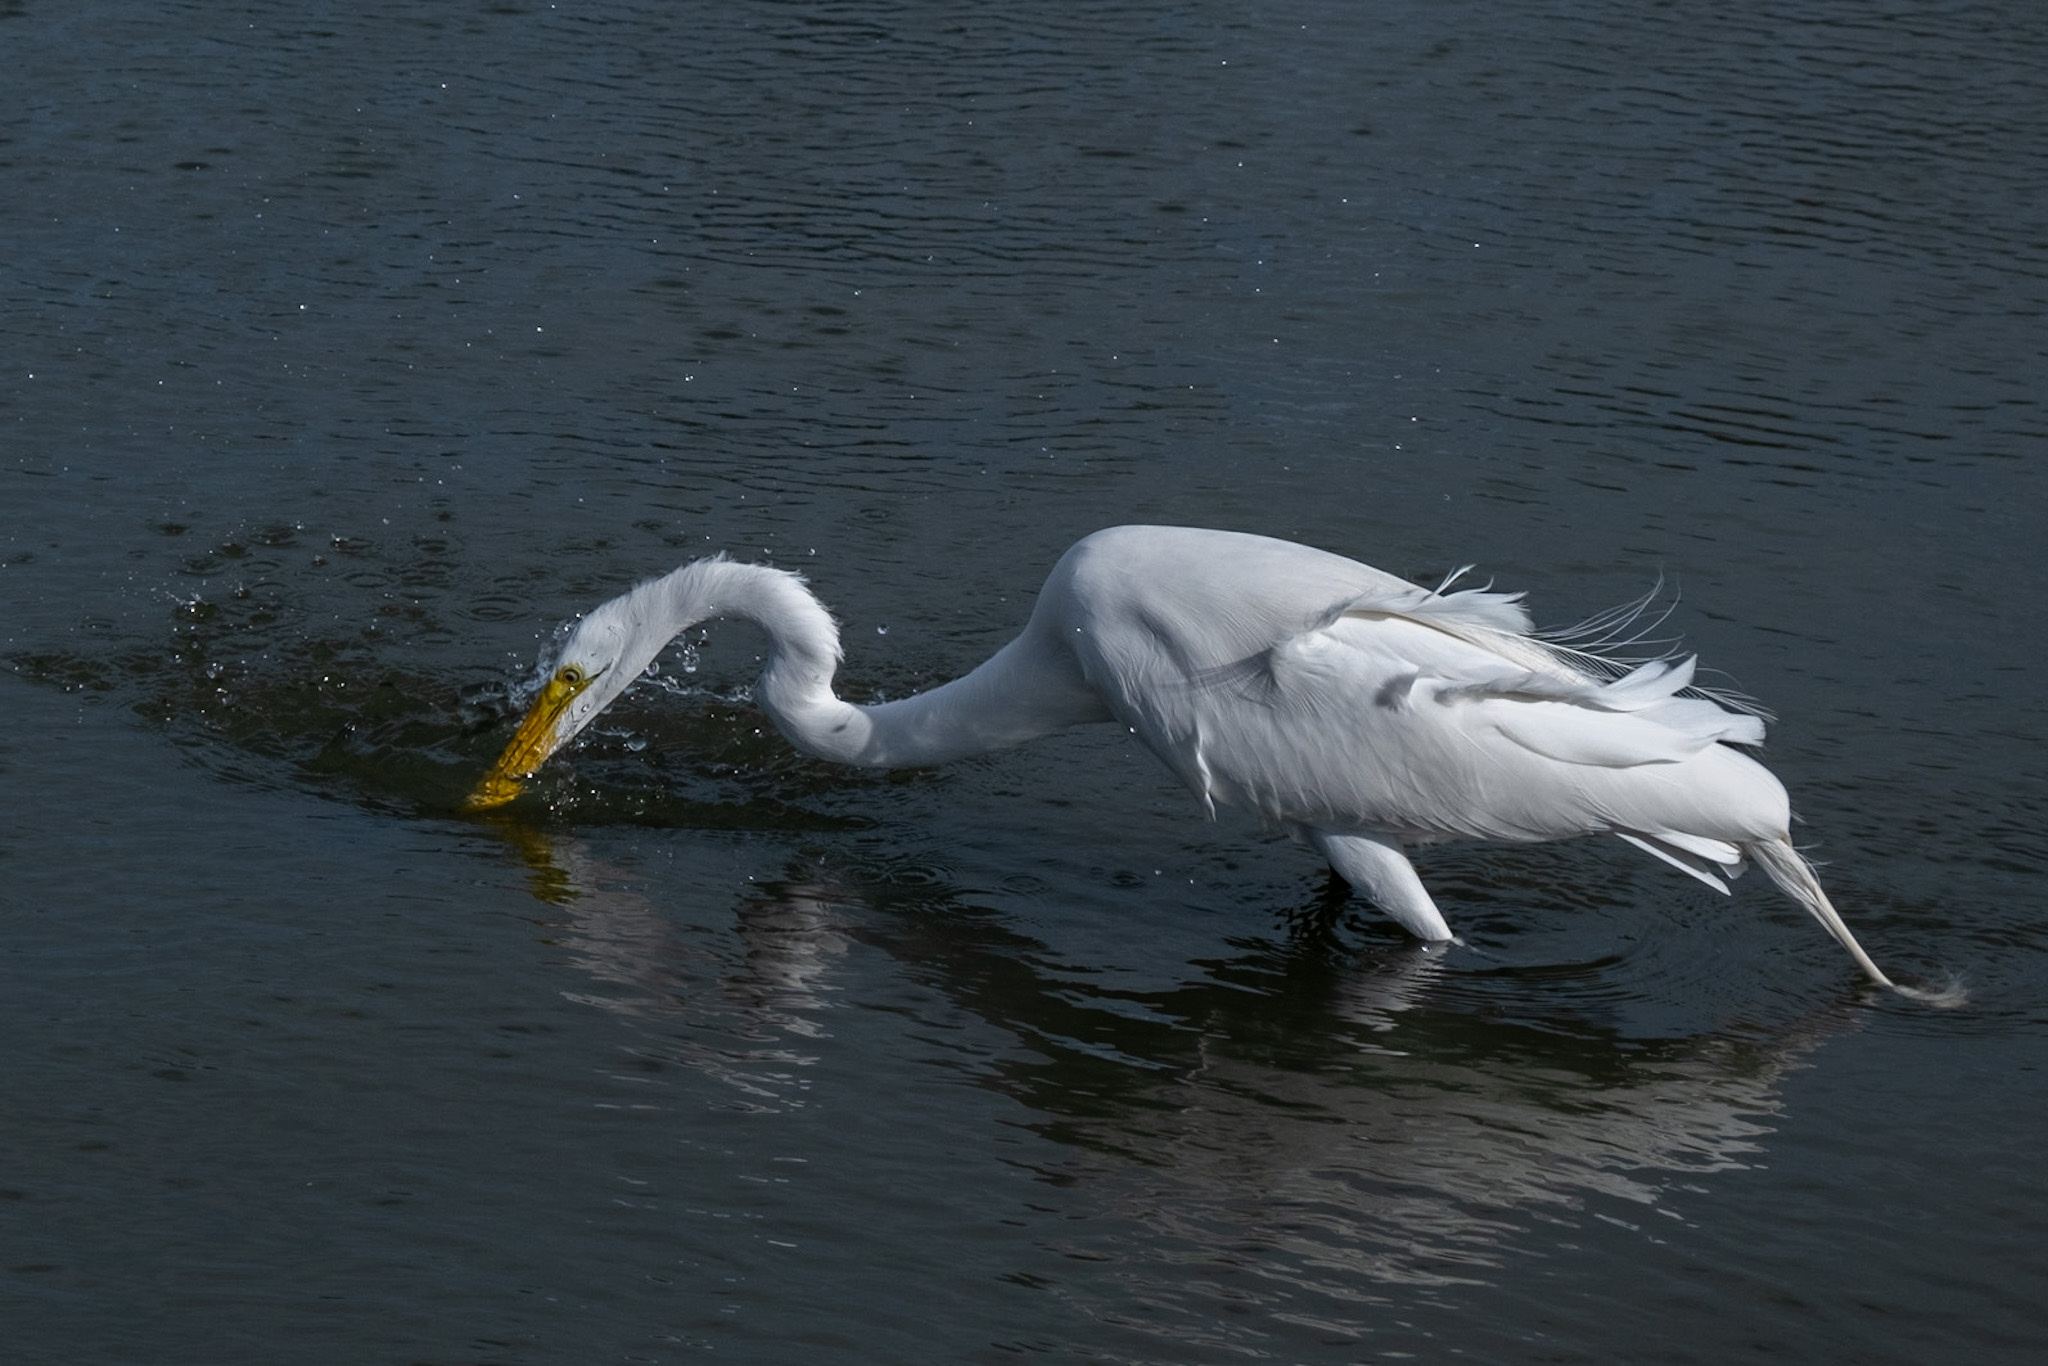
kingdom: Animalia
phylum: Chordata
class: Aves
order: Pelecaniformes
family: Ardeidae
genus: Ardea
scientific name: Ardea alba
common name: Great egret
